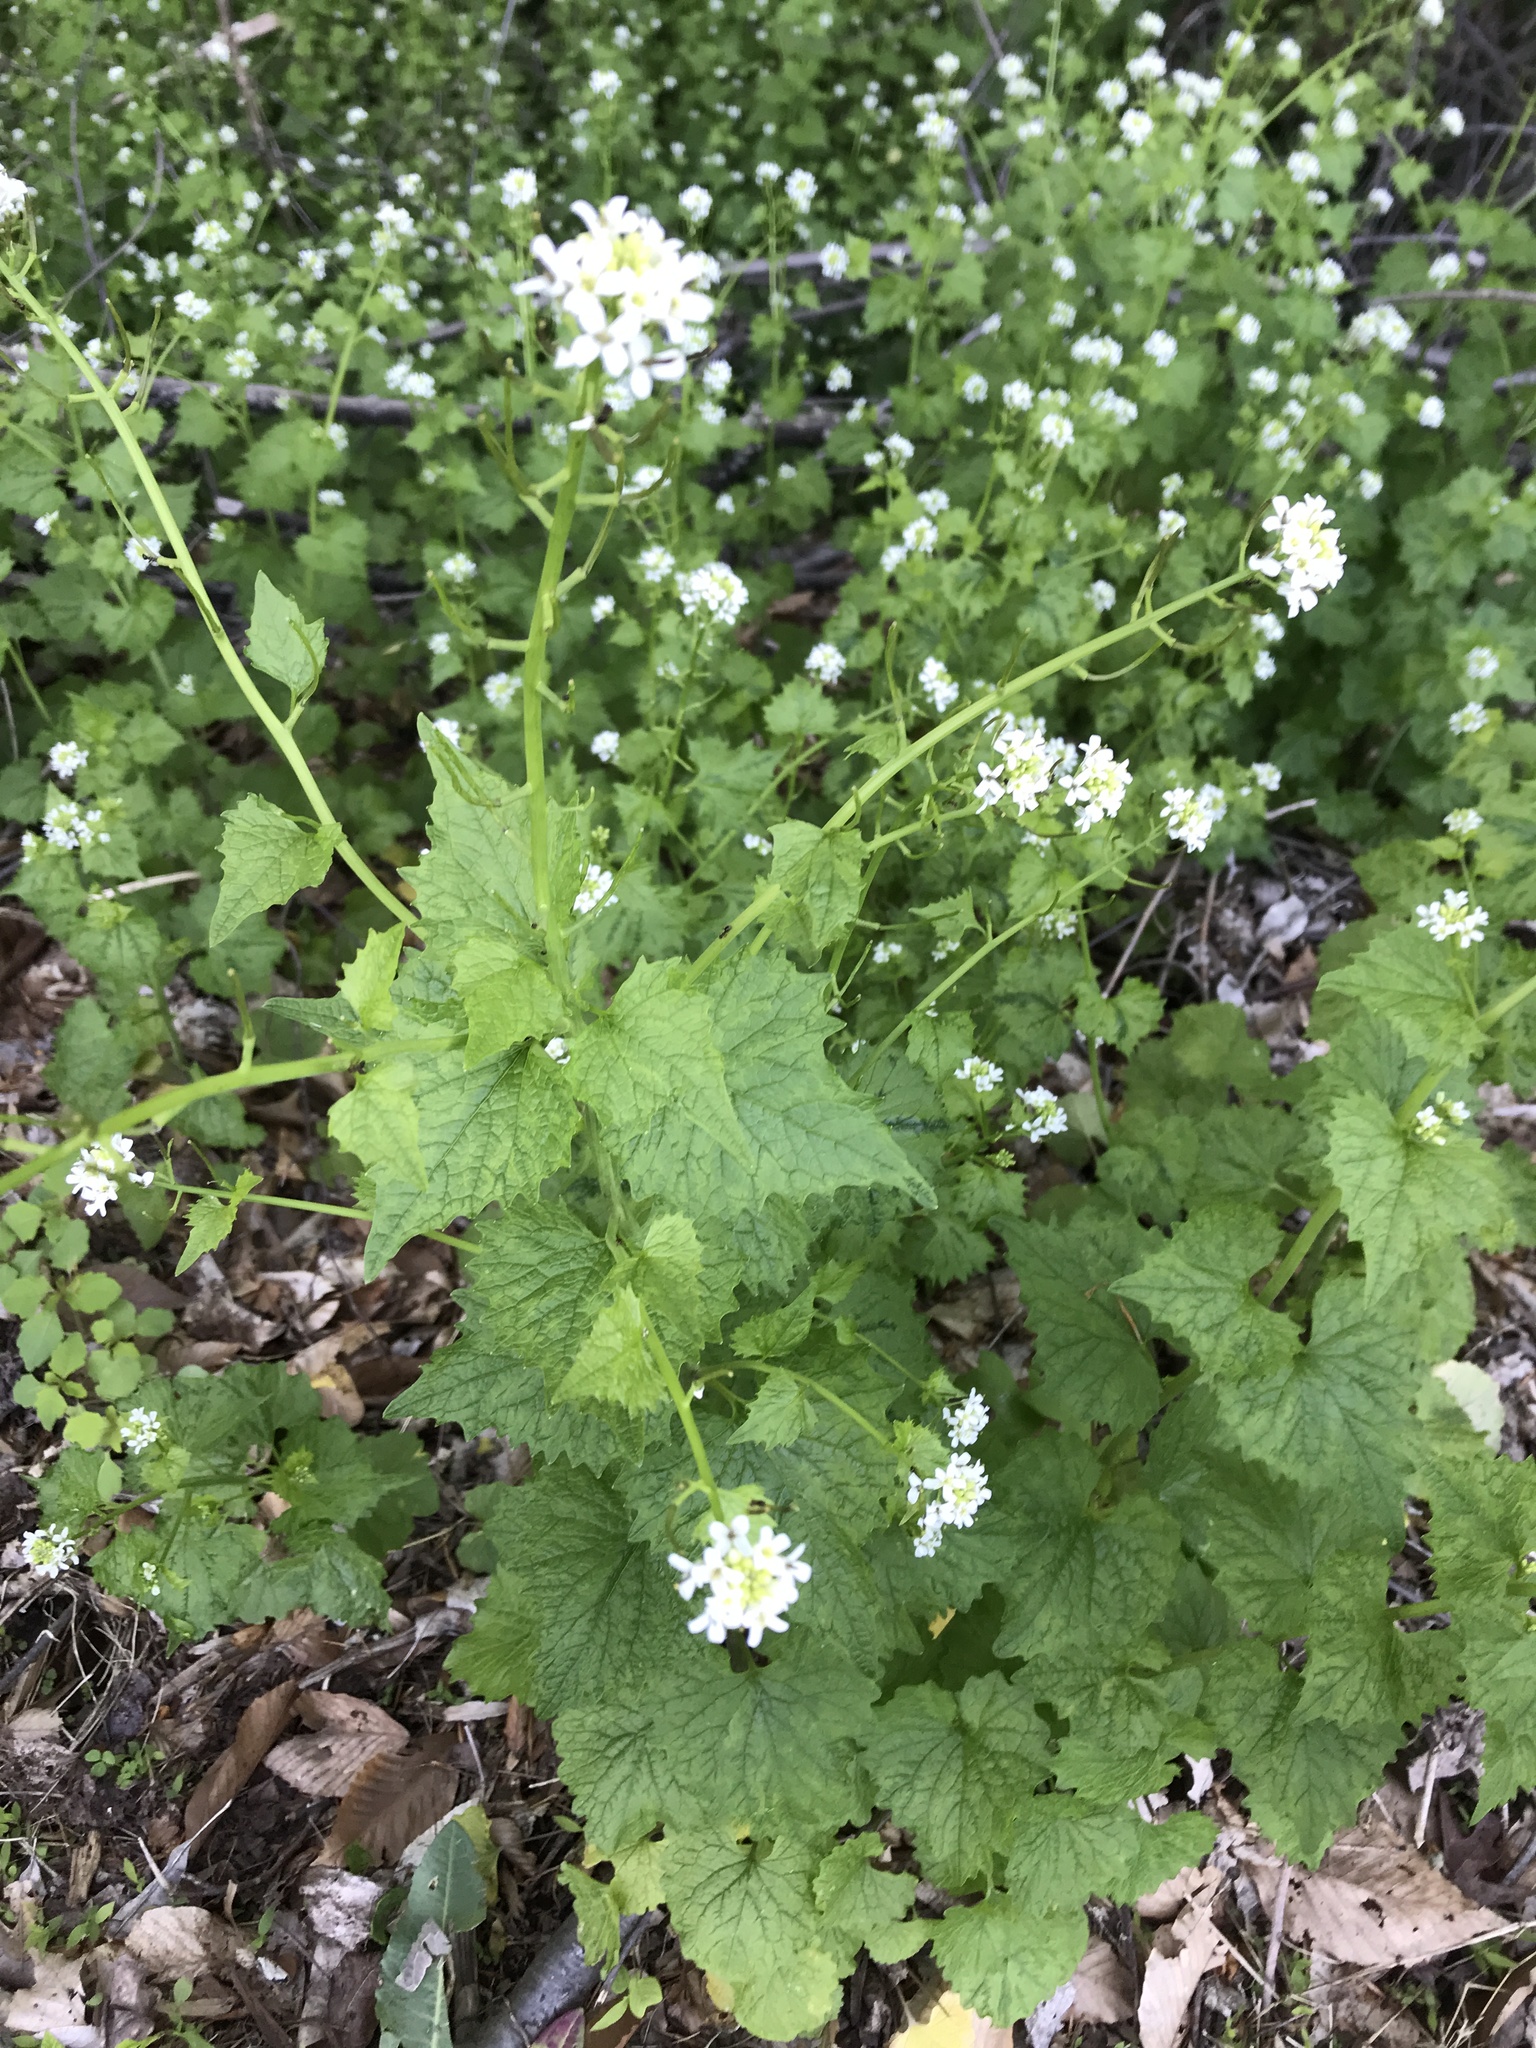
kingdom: Plantae
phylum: Tracheophyta
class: Magnoliopsida
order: Brassicales
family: Brassicaceae
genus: Alliaria
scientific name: Alliaria petiolata
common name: Garlic mustard
